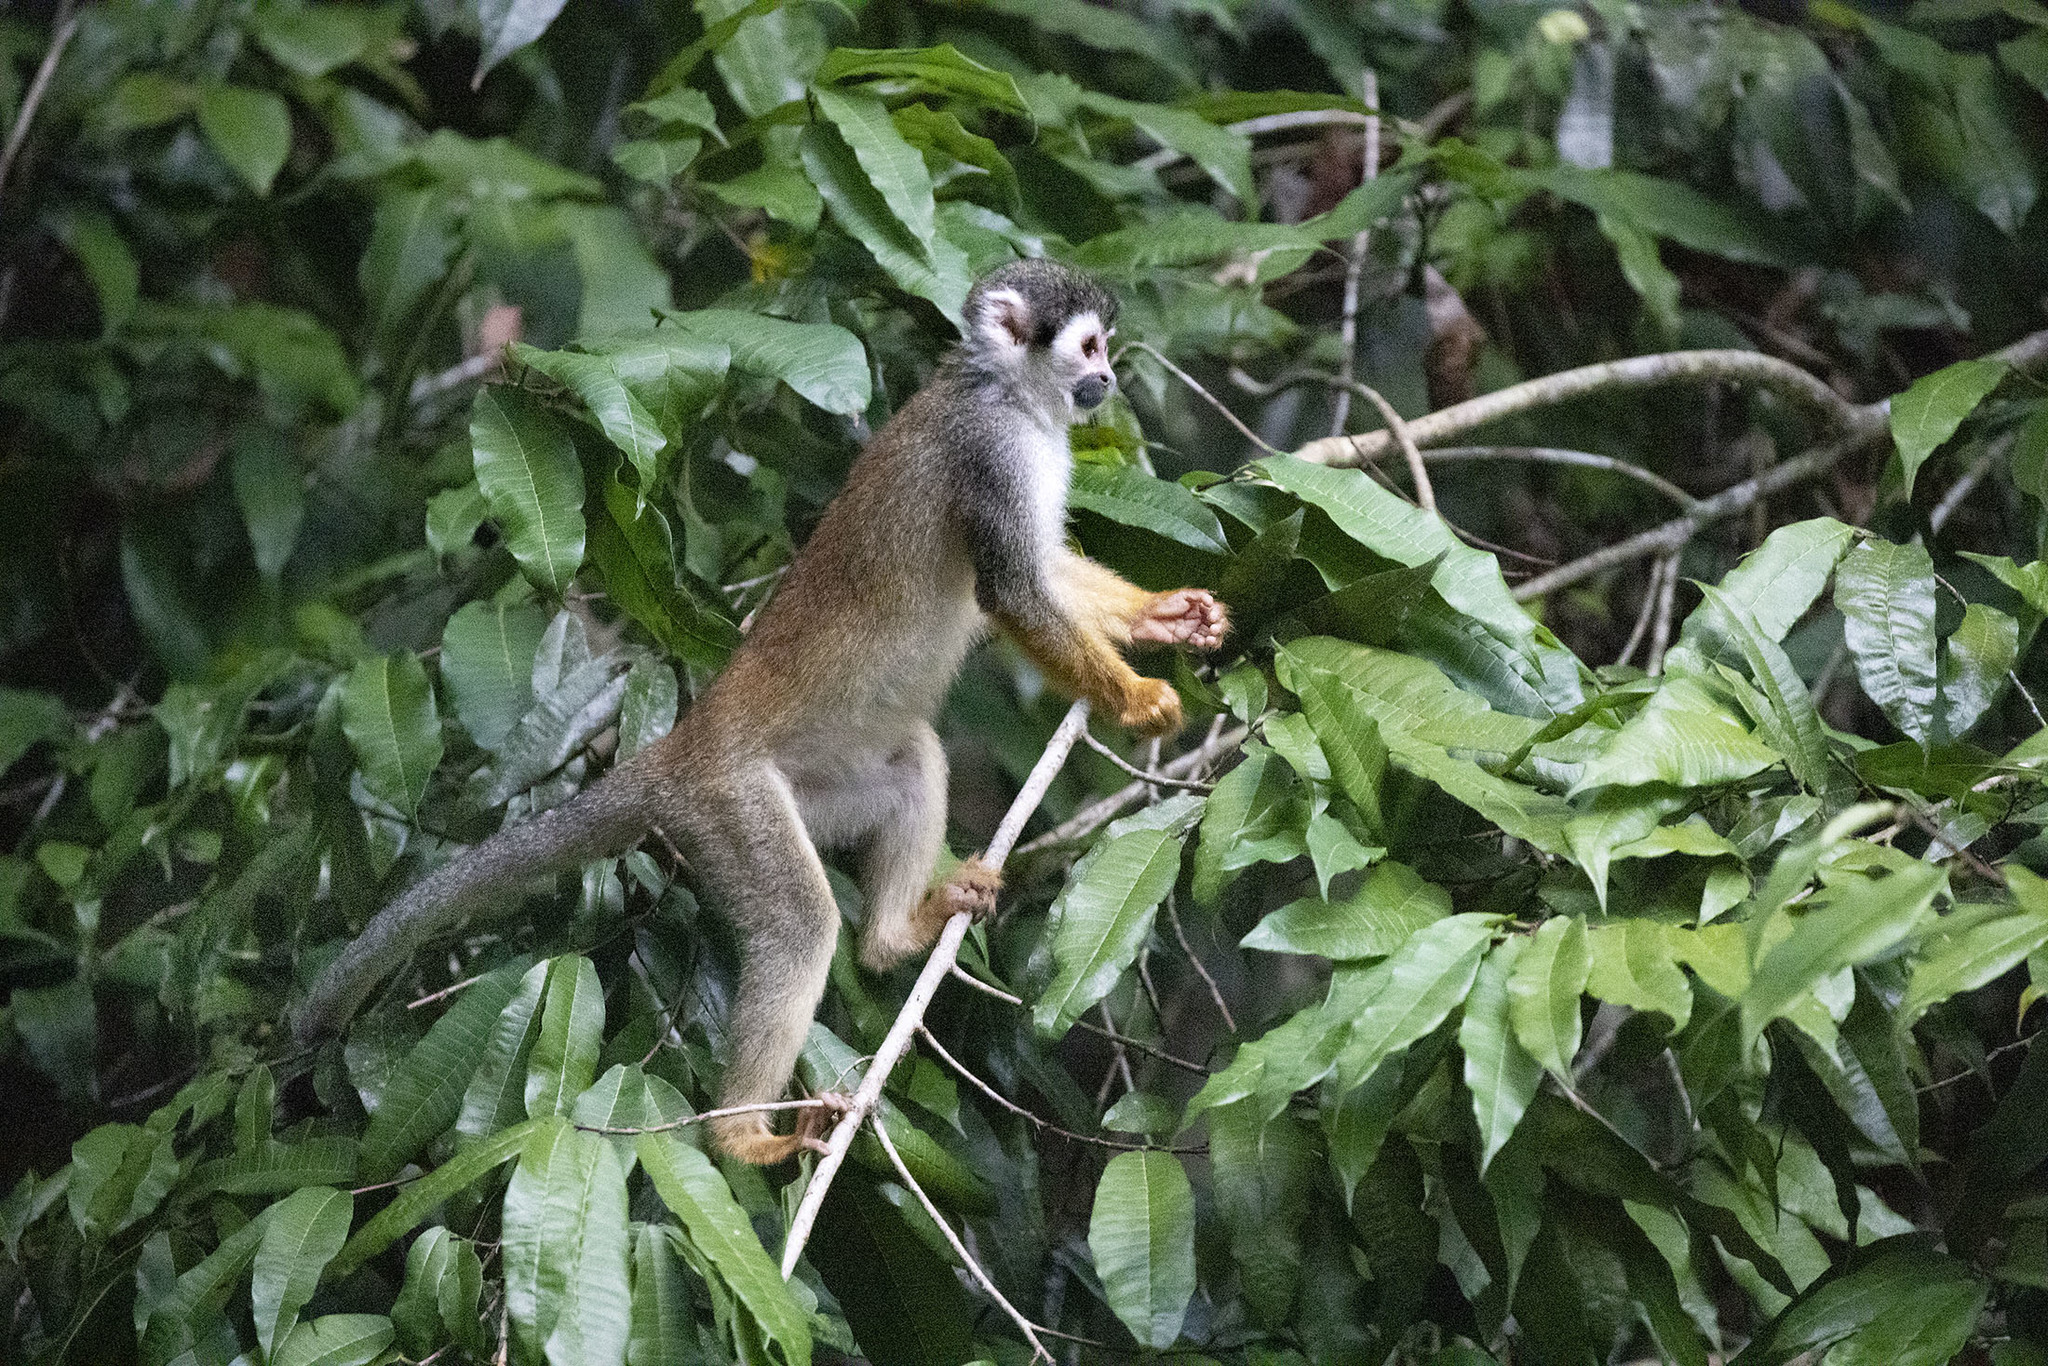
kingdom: Animalia
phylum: Chordata
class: Mammalia
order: Primates
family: Cebidae
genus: Saimiri
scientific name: Saimiri cassiquiarensis
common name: Humboldt’s squirrel monkey
